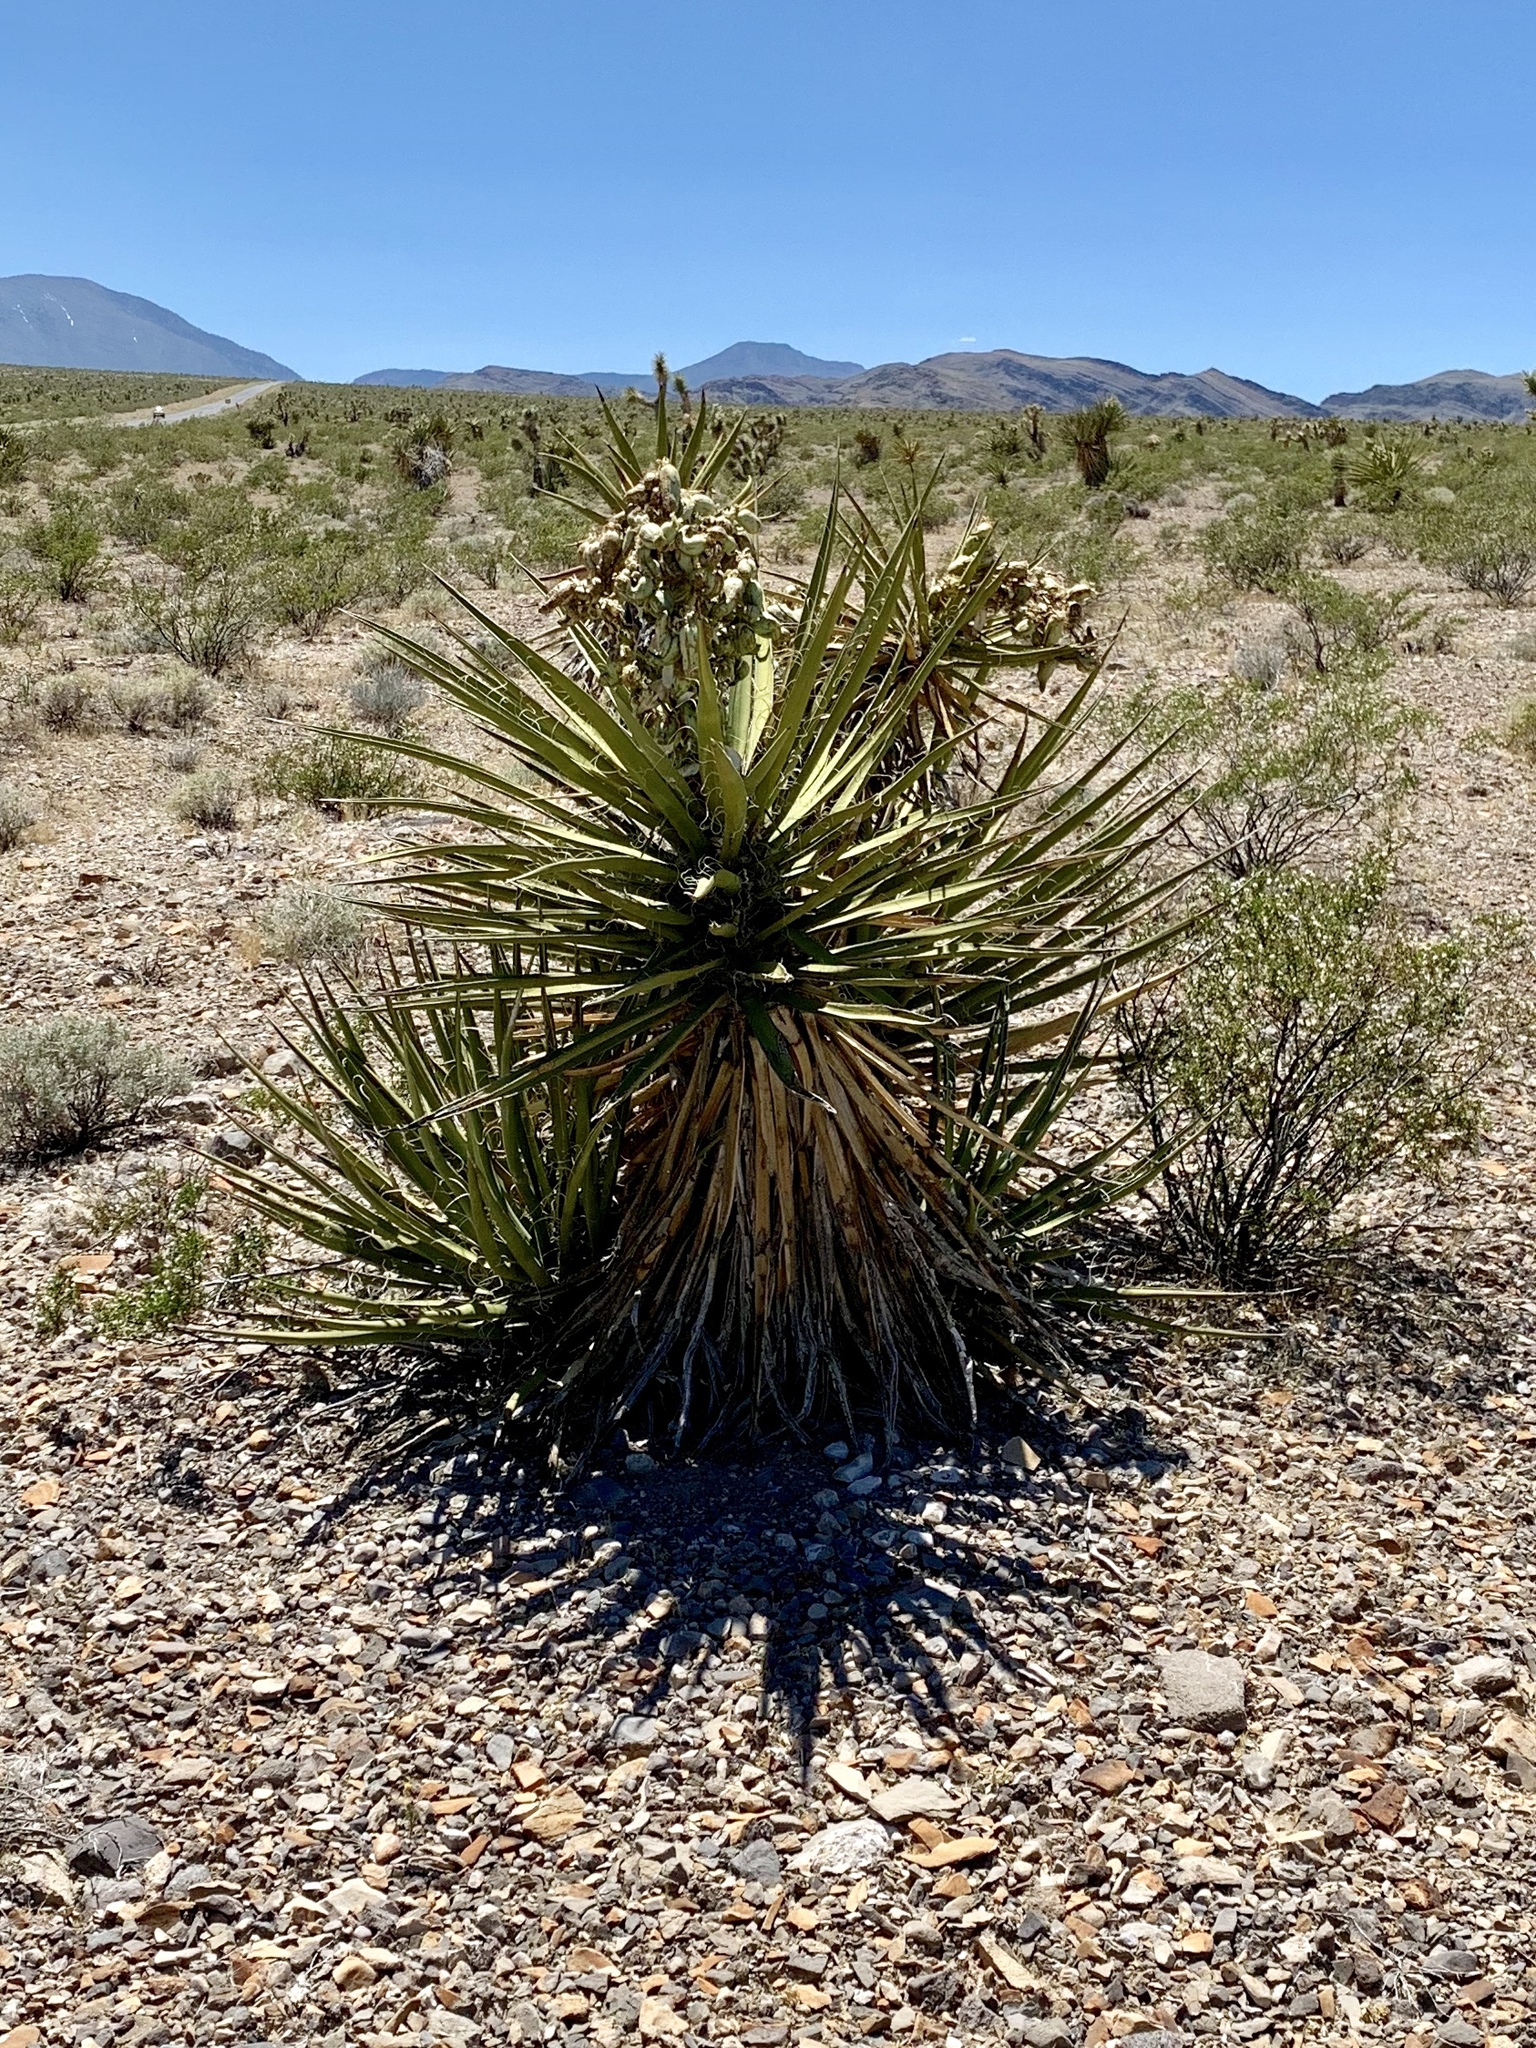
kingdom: Plantae
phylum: Tracheophyta
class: Liliopsida
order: Asparagales
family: Asparagaceae
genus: Yucca
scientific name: Yucca schidigera
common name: Mojave yucca
